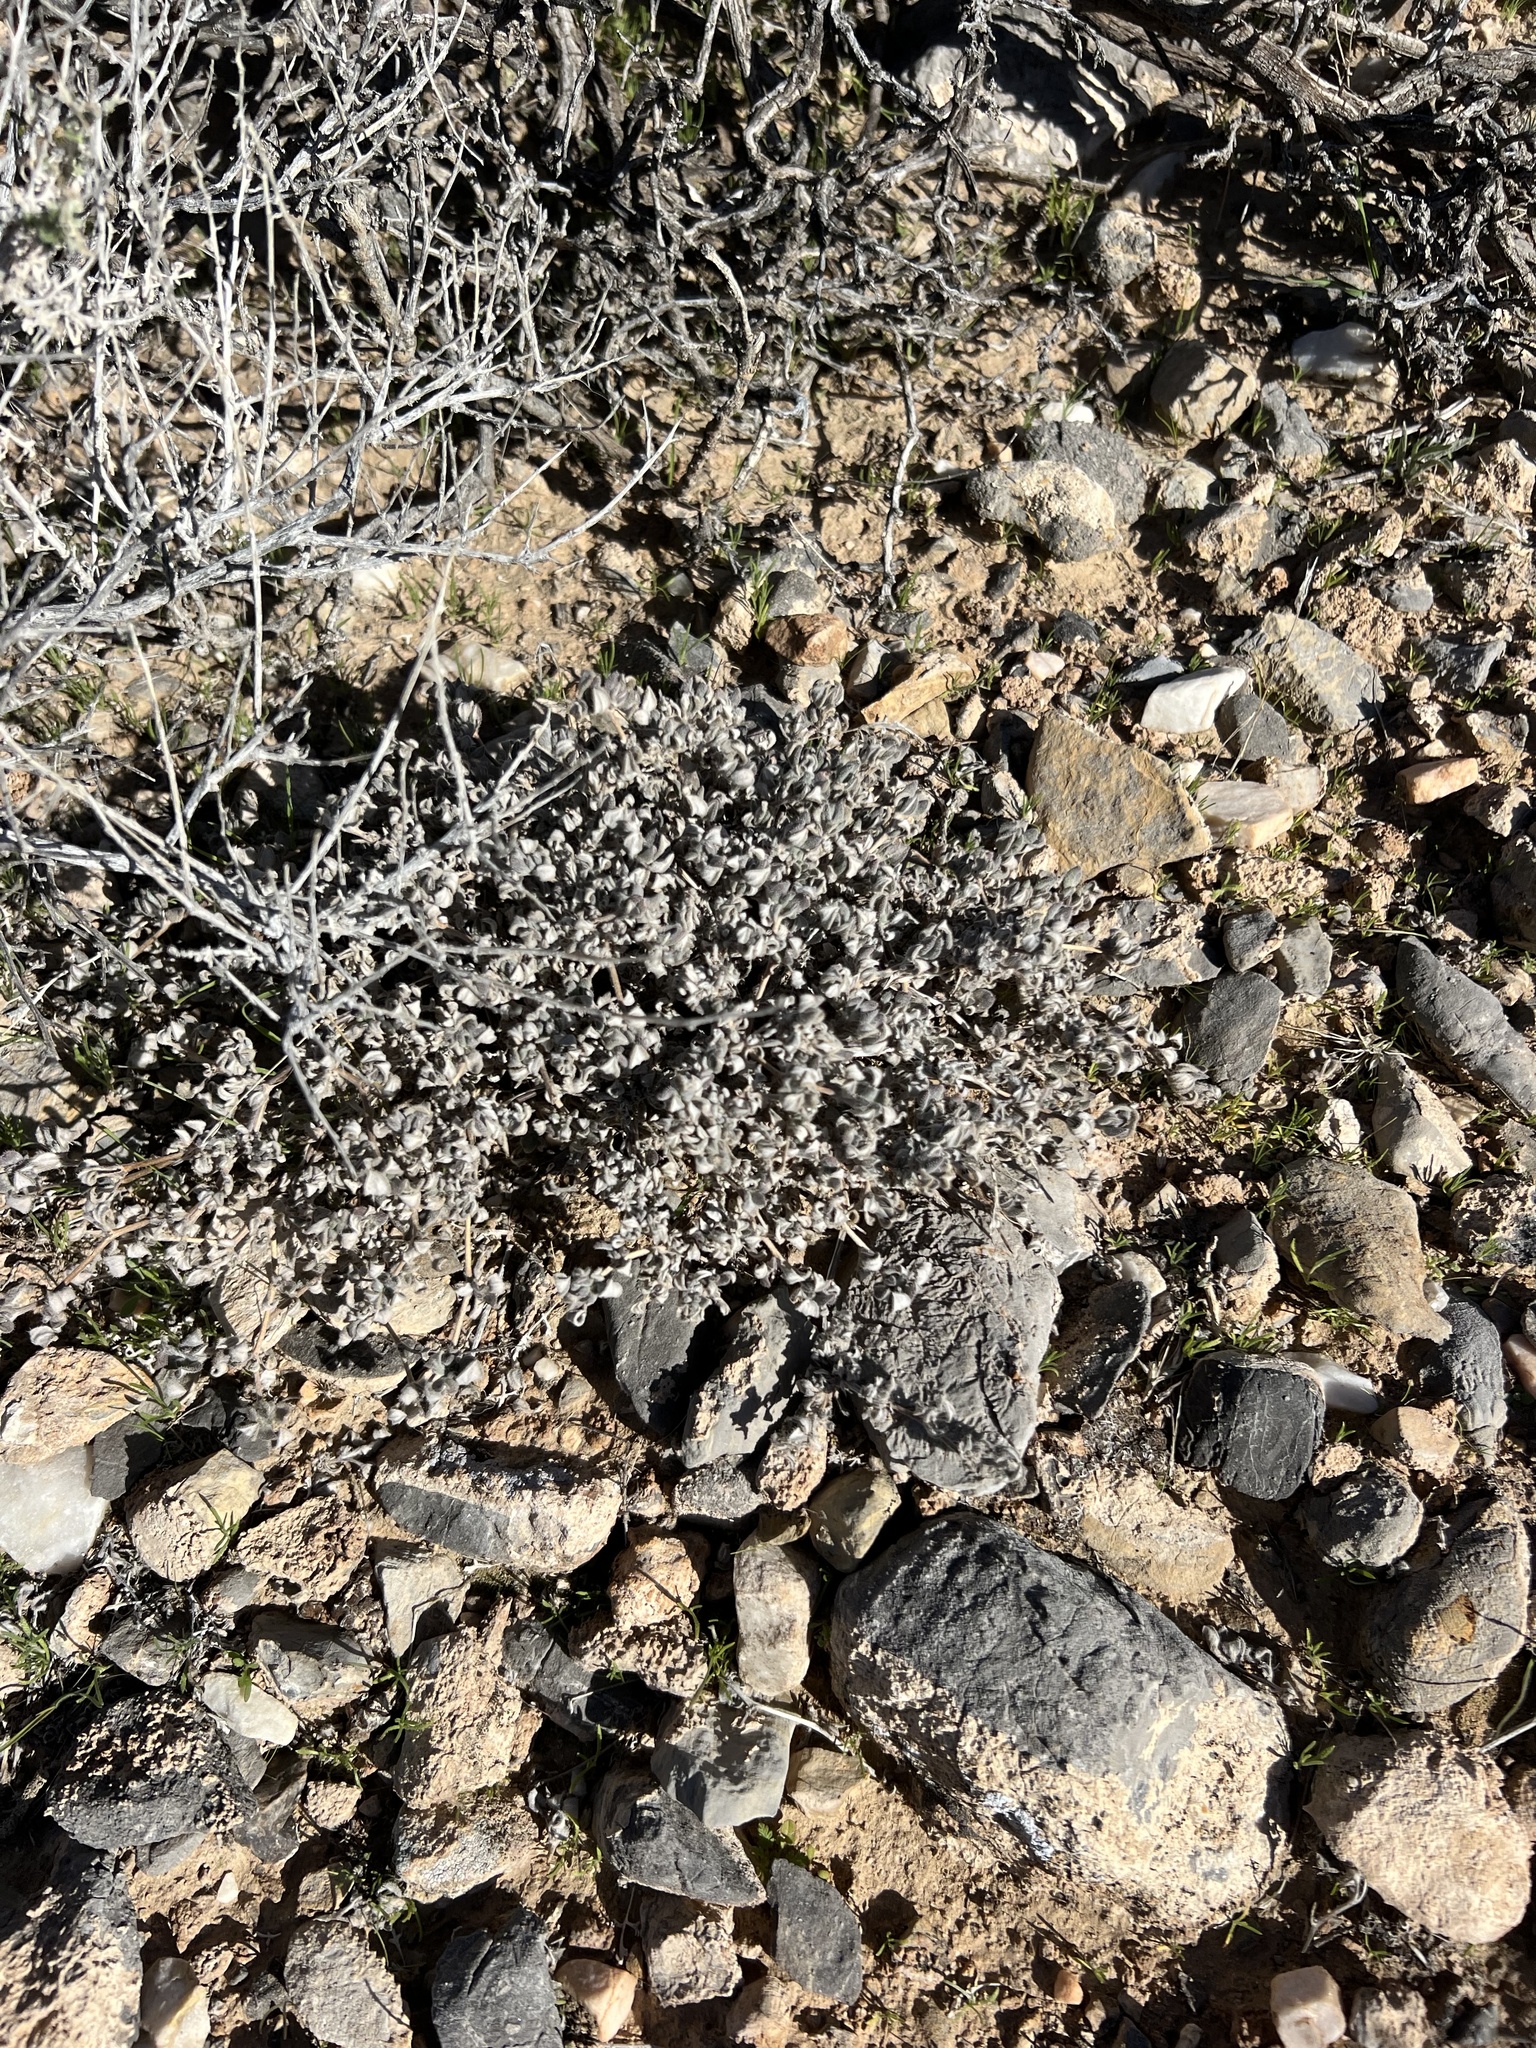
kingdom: Plantae
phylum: Tracheophyta
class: Magnoliopsida
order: Boraginales
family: Ehretiaceae
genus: Tiquilia
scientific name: Tiquilia canescens
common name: Hairy tiquilia
